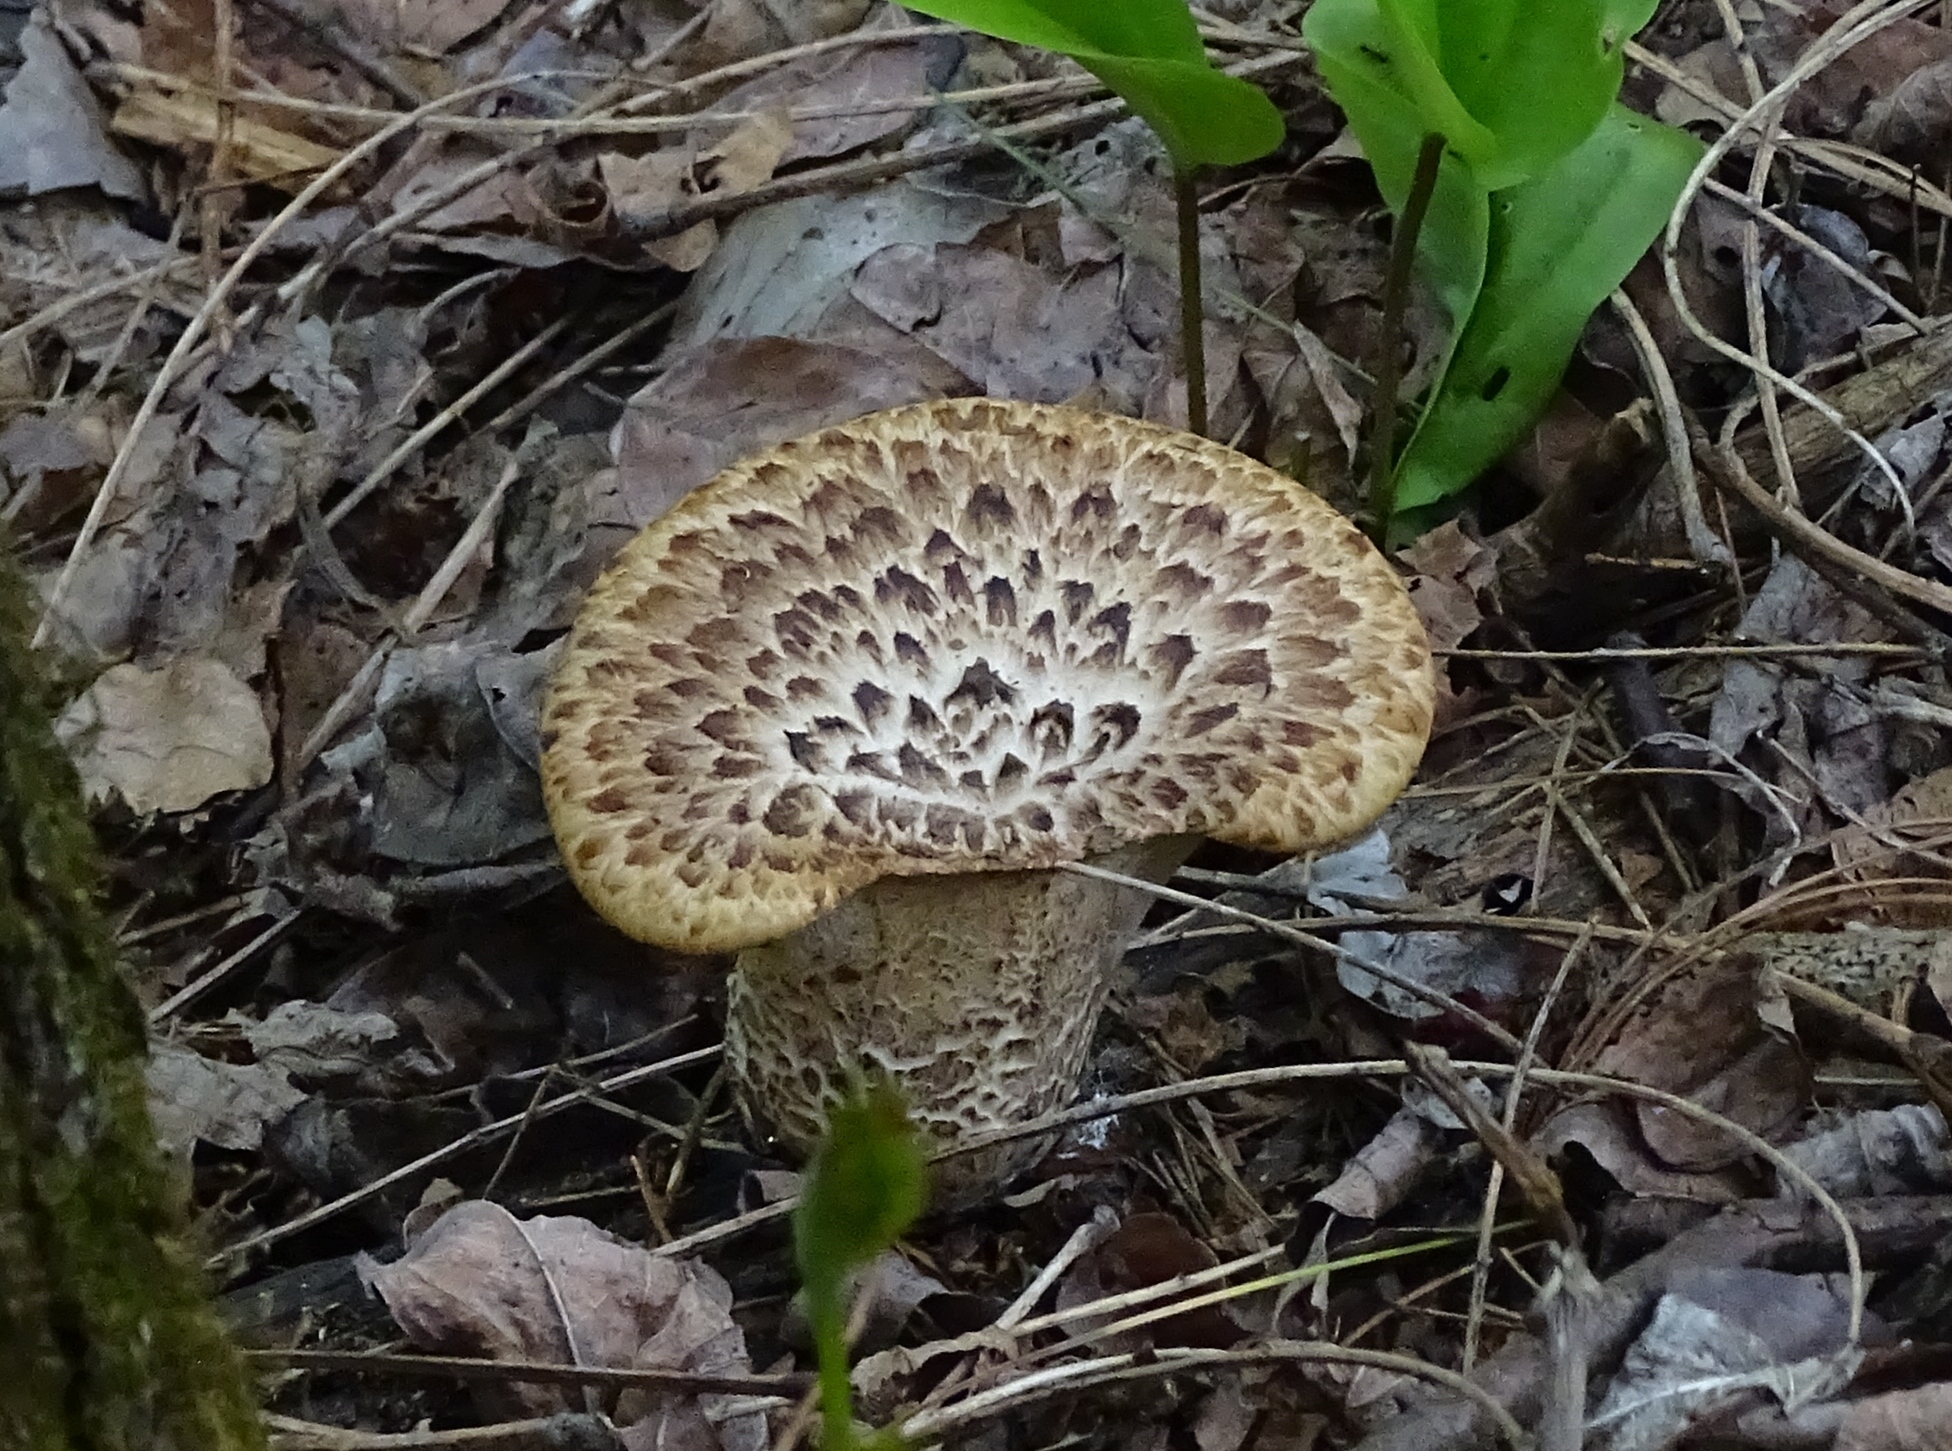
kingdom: Fungi
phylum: Basidiomycota
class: Agaricomycetes
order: Polyporales
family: Polyporaceae
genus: Cerioporus
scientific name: Cerioporus squamosus
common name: Dryad's saddle
